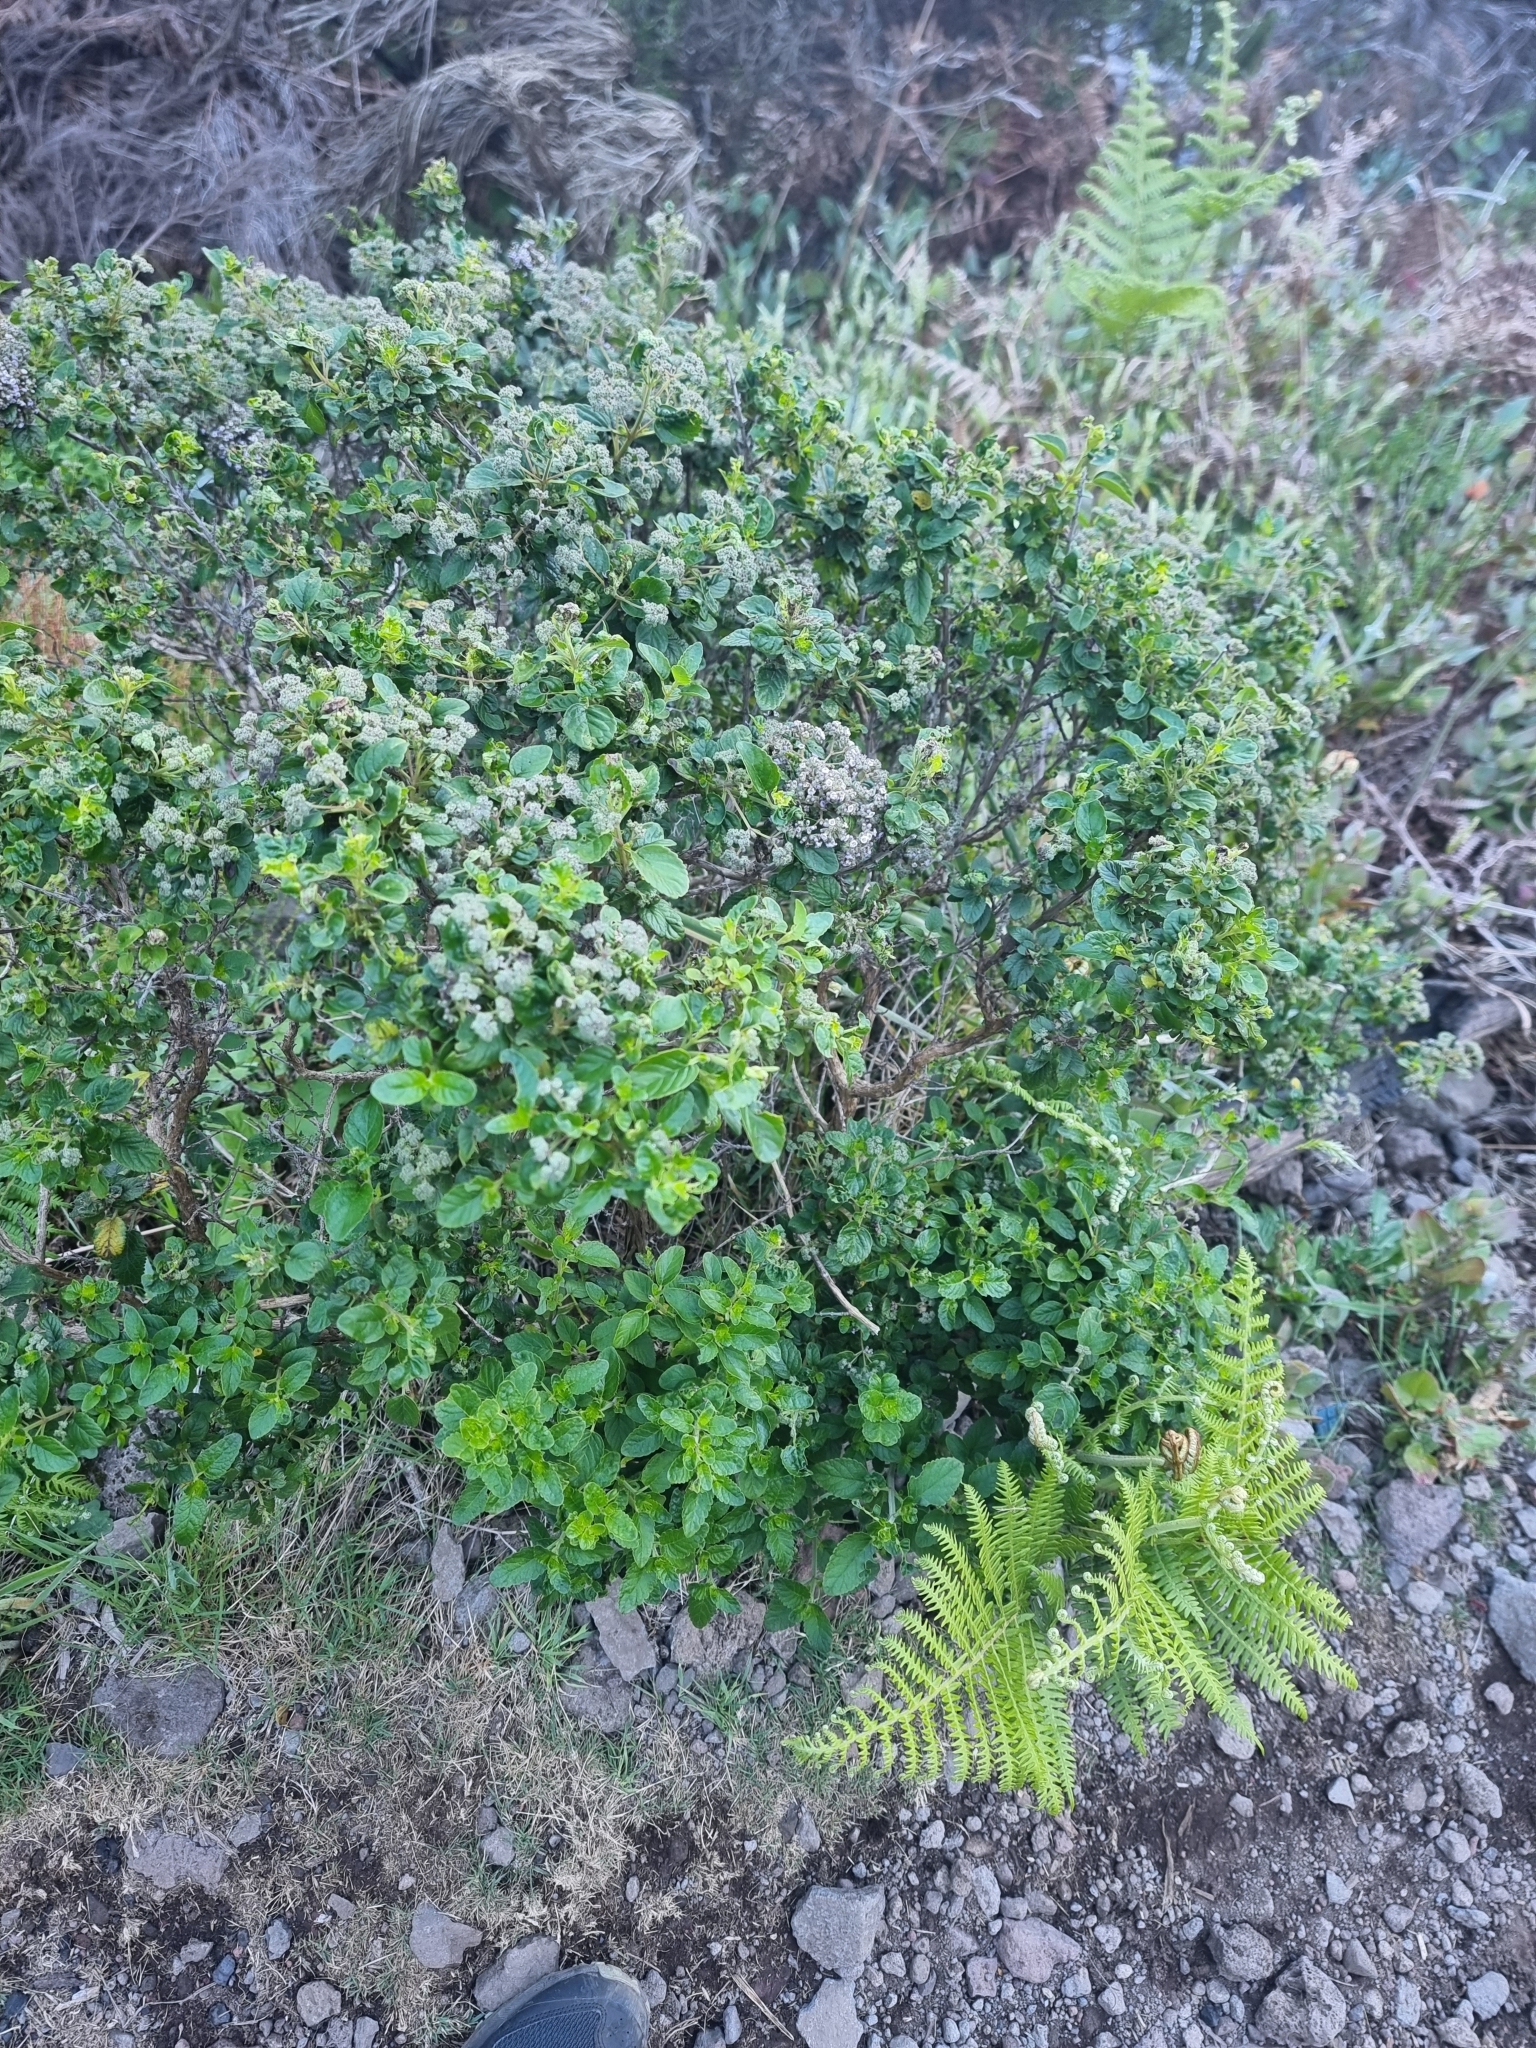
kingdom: Plantae
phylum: Tracheophyta
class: Magnoliopsida
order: Lamiales
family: Lamiaceae
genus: Bystropogon
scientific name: Bystropogon punctatus
